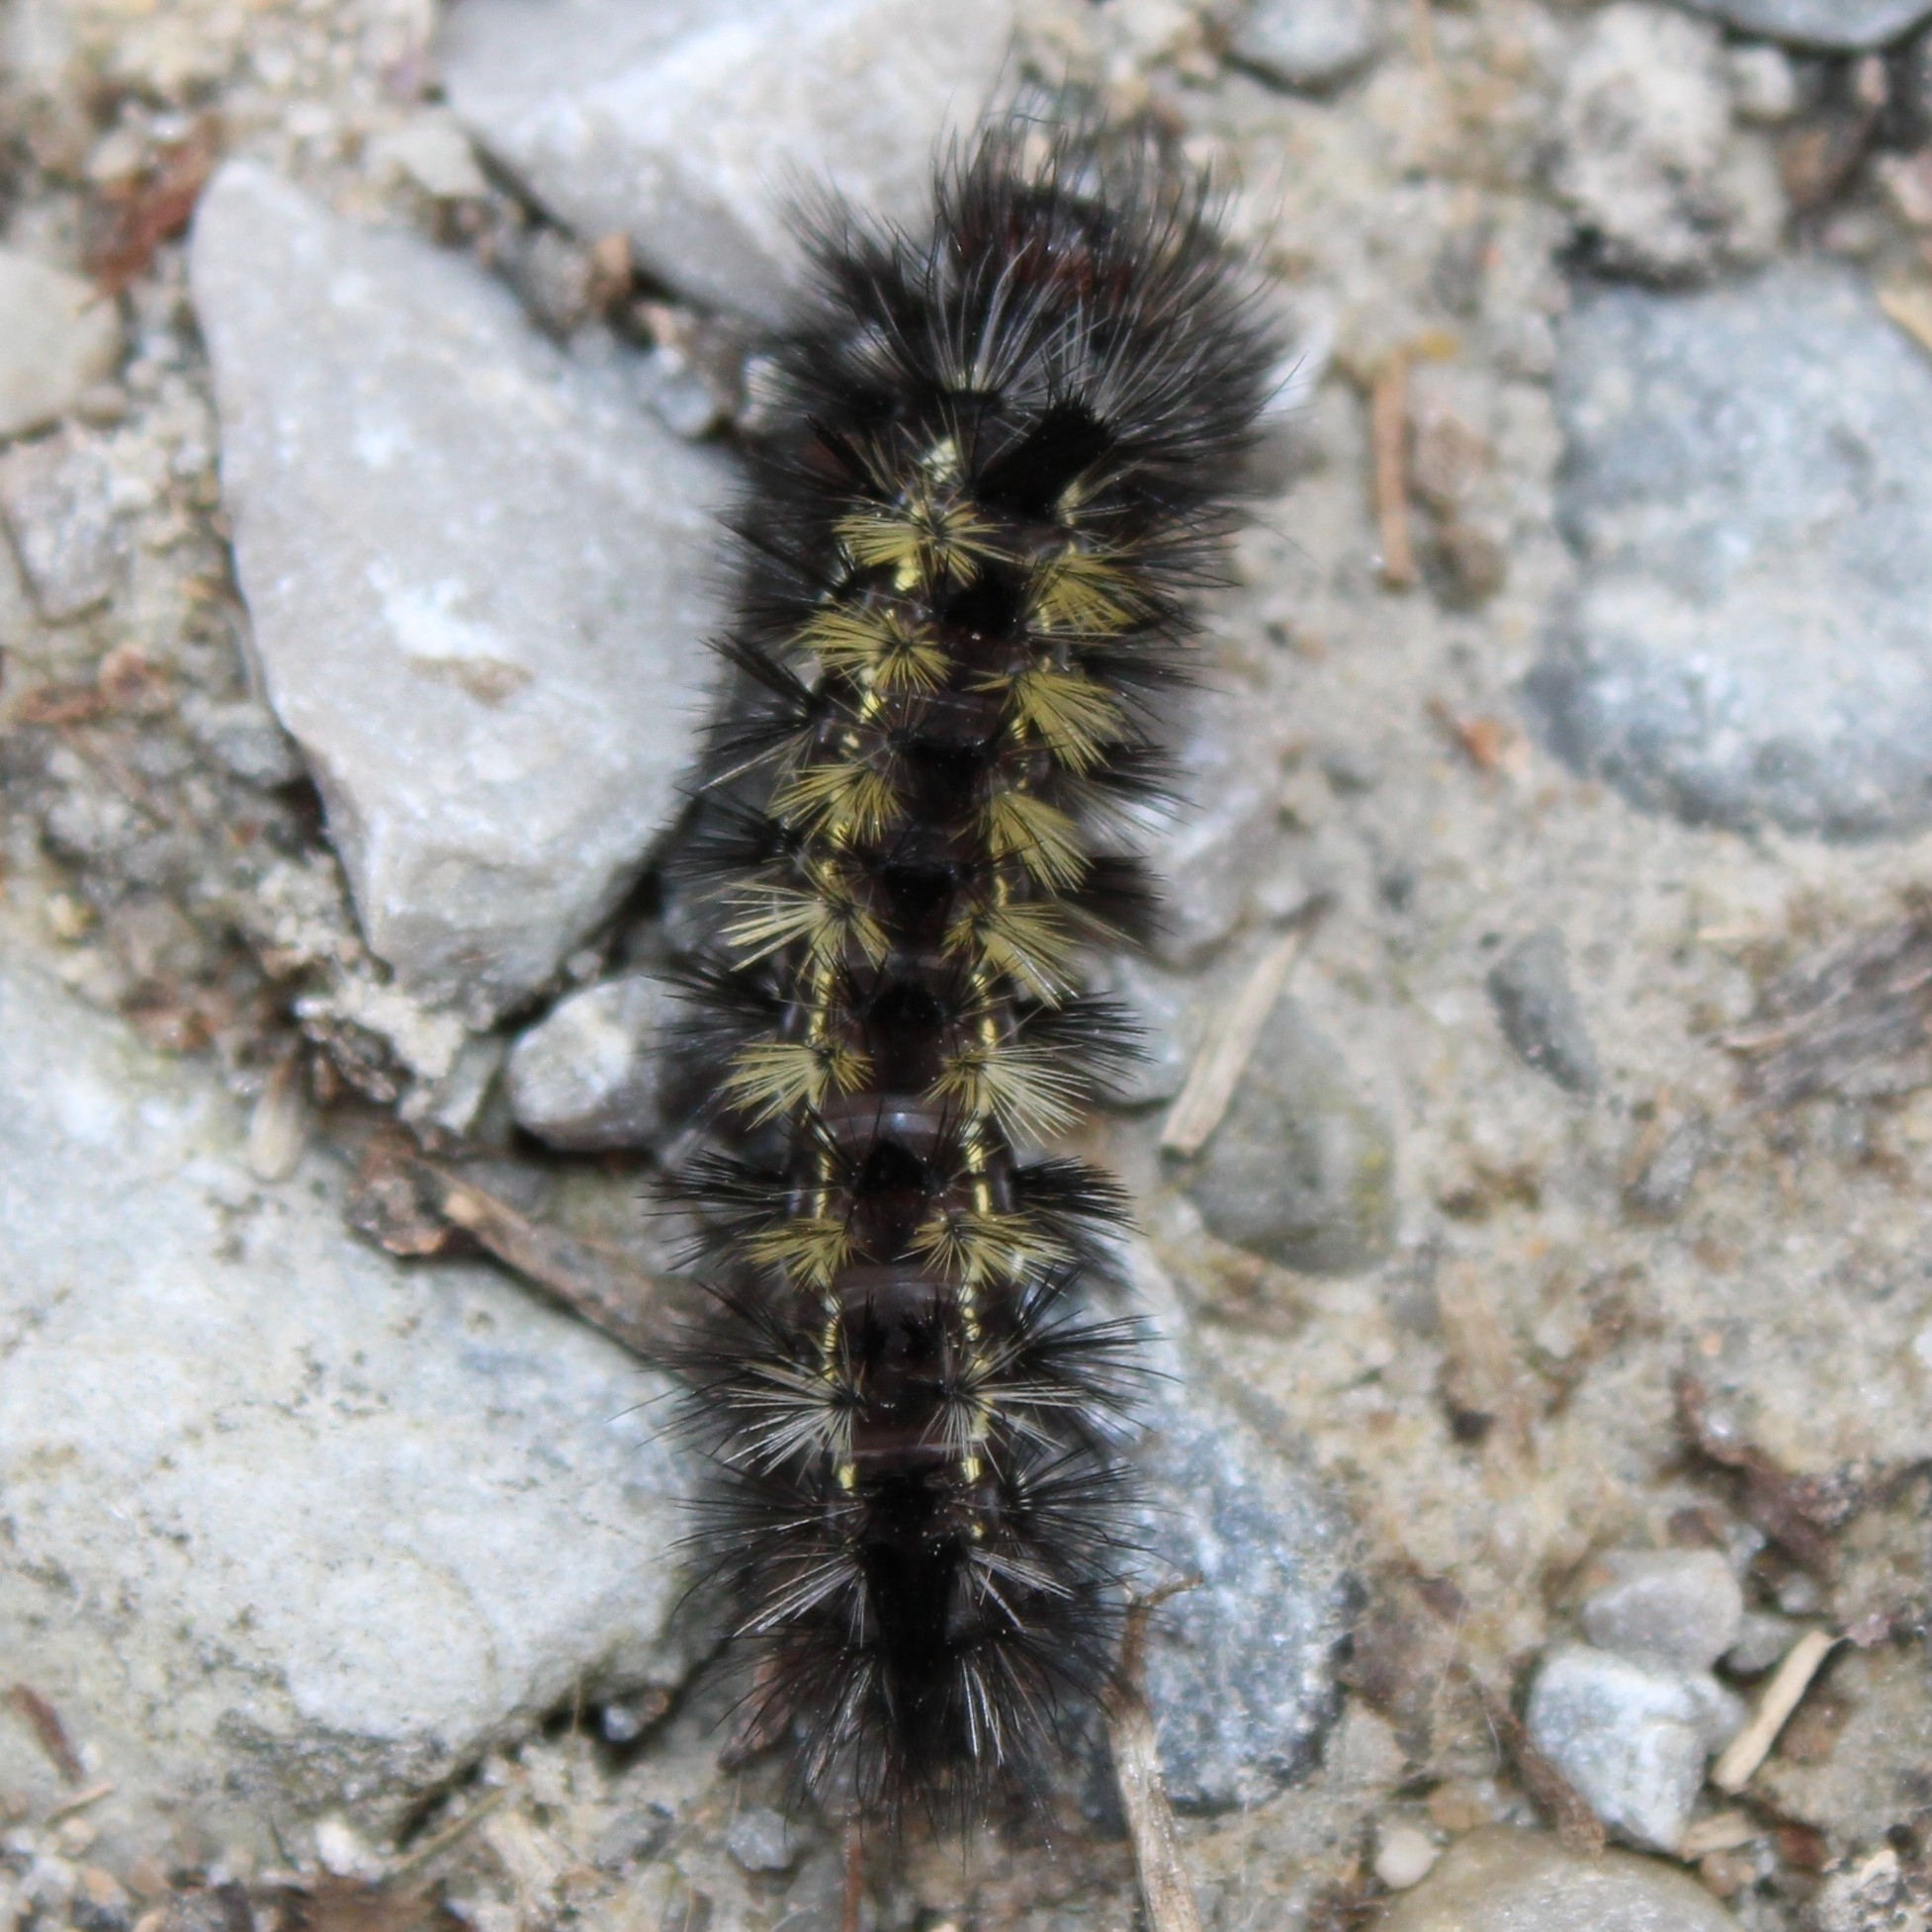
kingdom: Animalia
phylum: Arthropoda
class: Insecta
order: Lepidoptera
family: Erebidae
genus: Ctenucha
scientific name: Ctenucha virginica
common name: Virginia ctenucha moth
